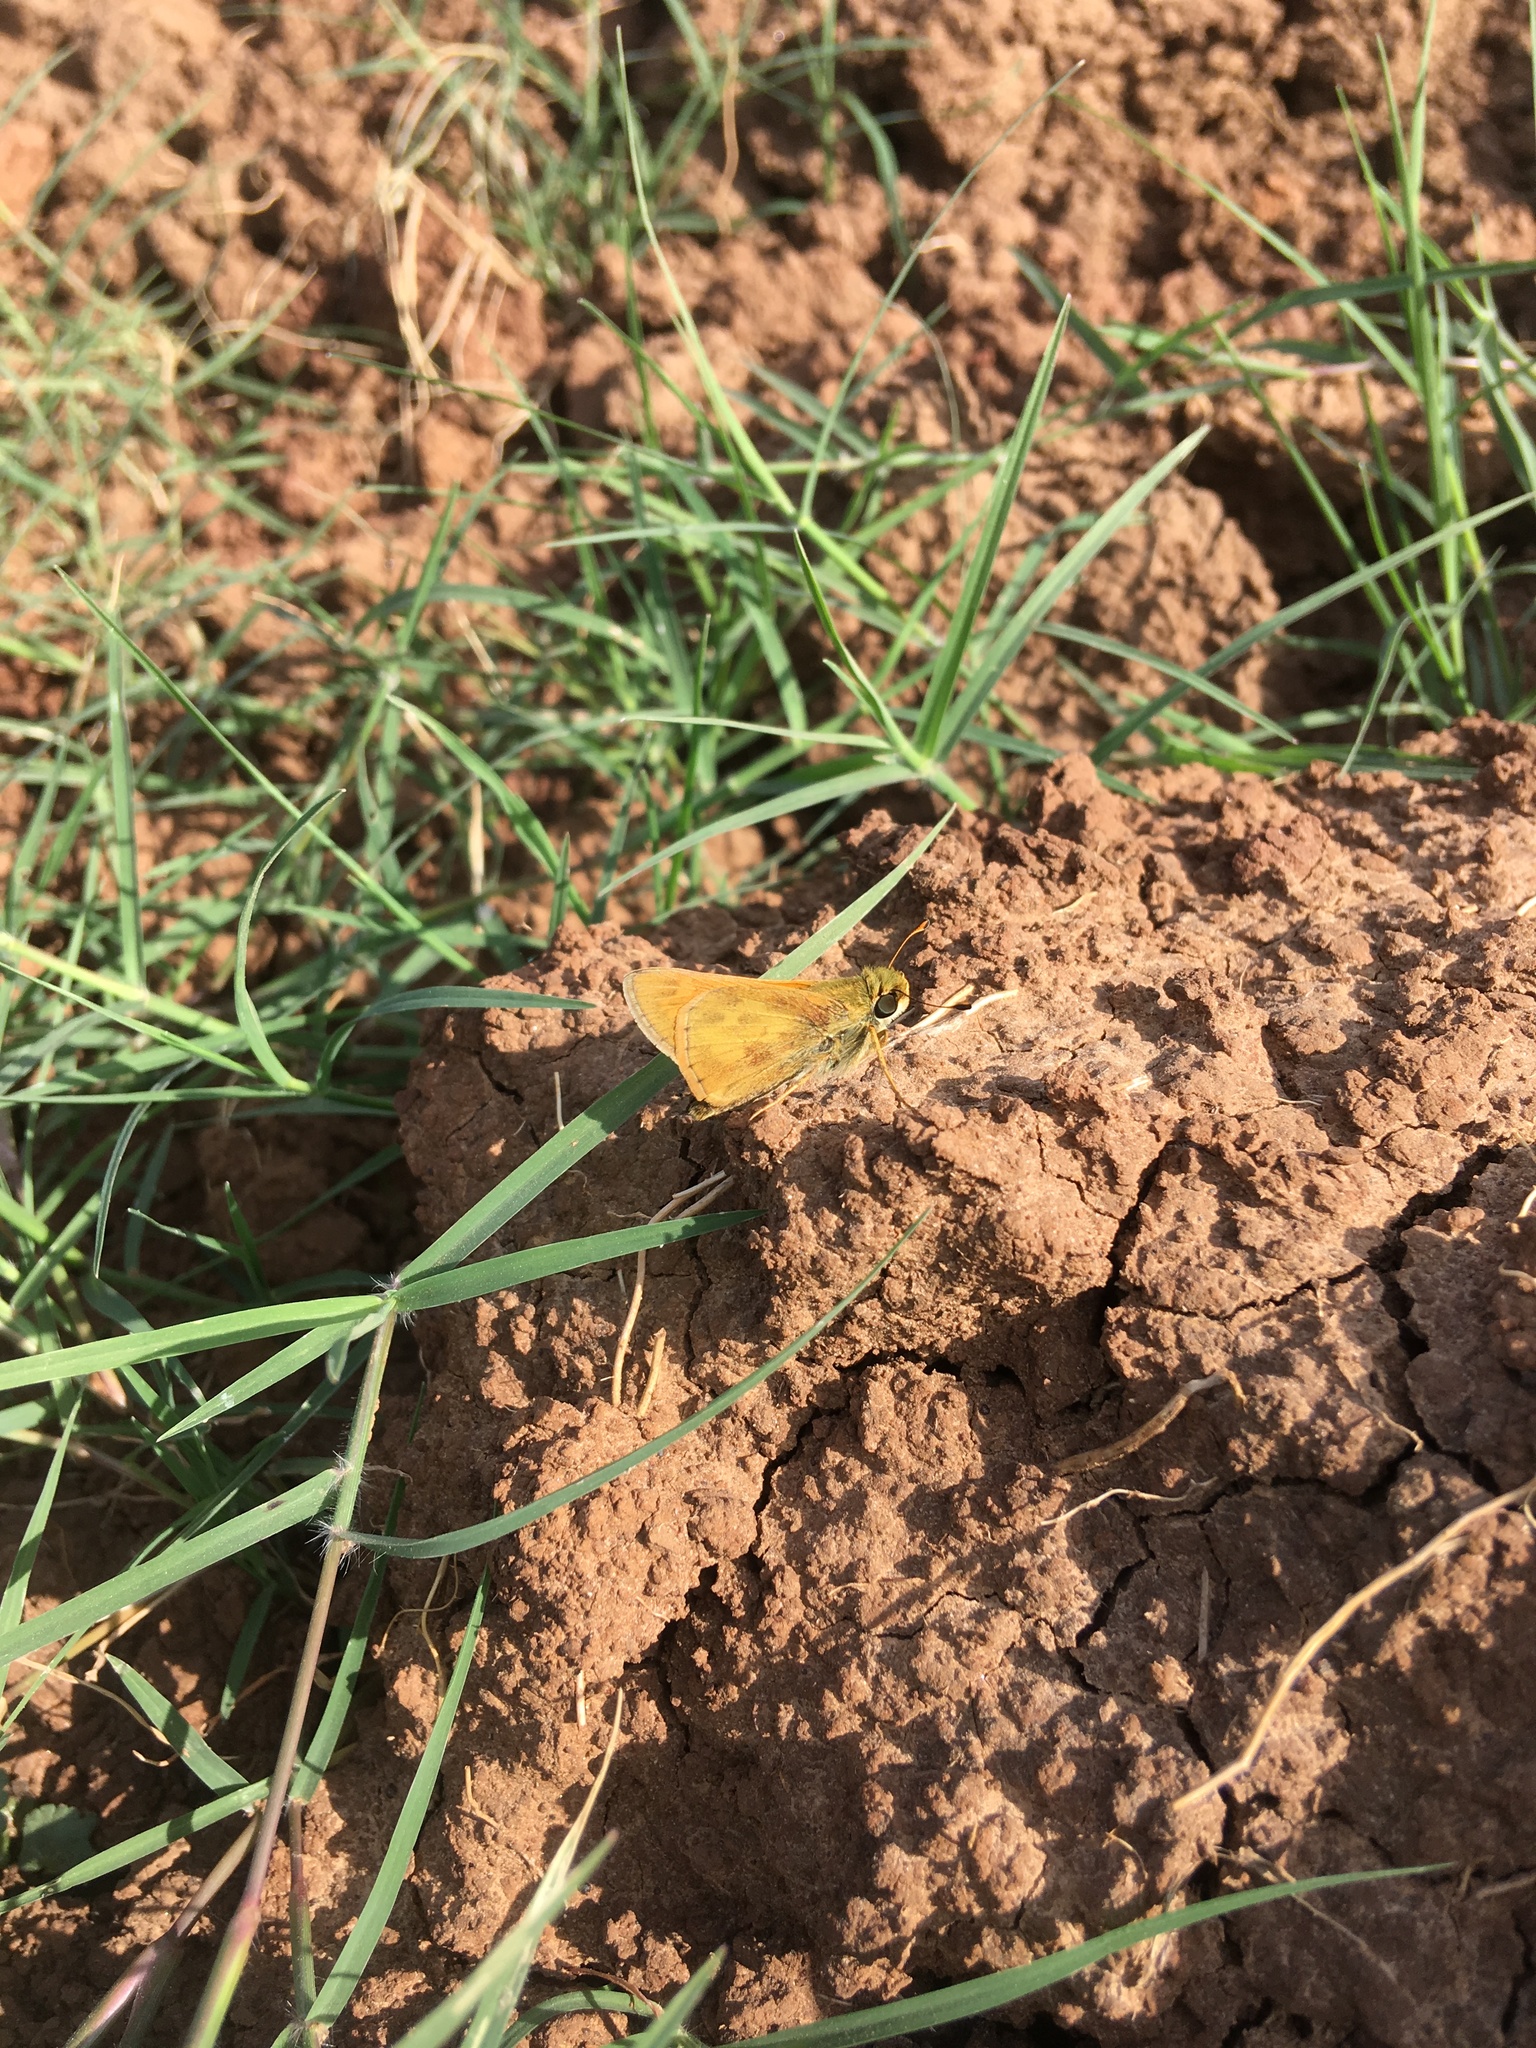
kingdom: Animalia
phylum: Arthropoda
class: Insecta
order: Lepidoptera
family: Hesperiidae
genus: Atalopedes
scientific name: Atalopedes
